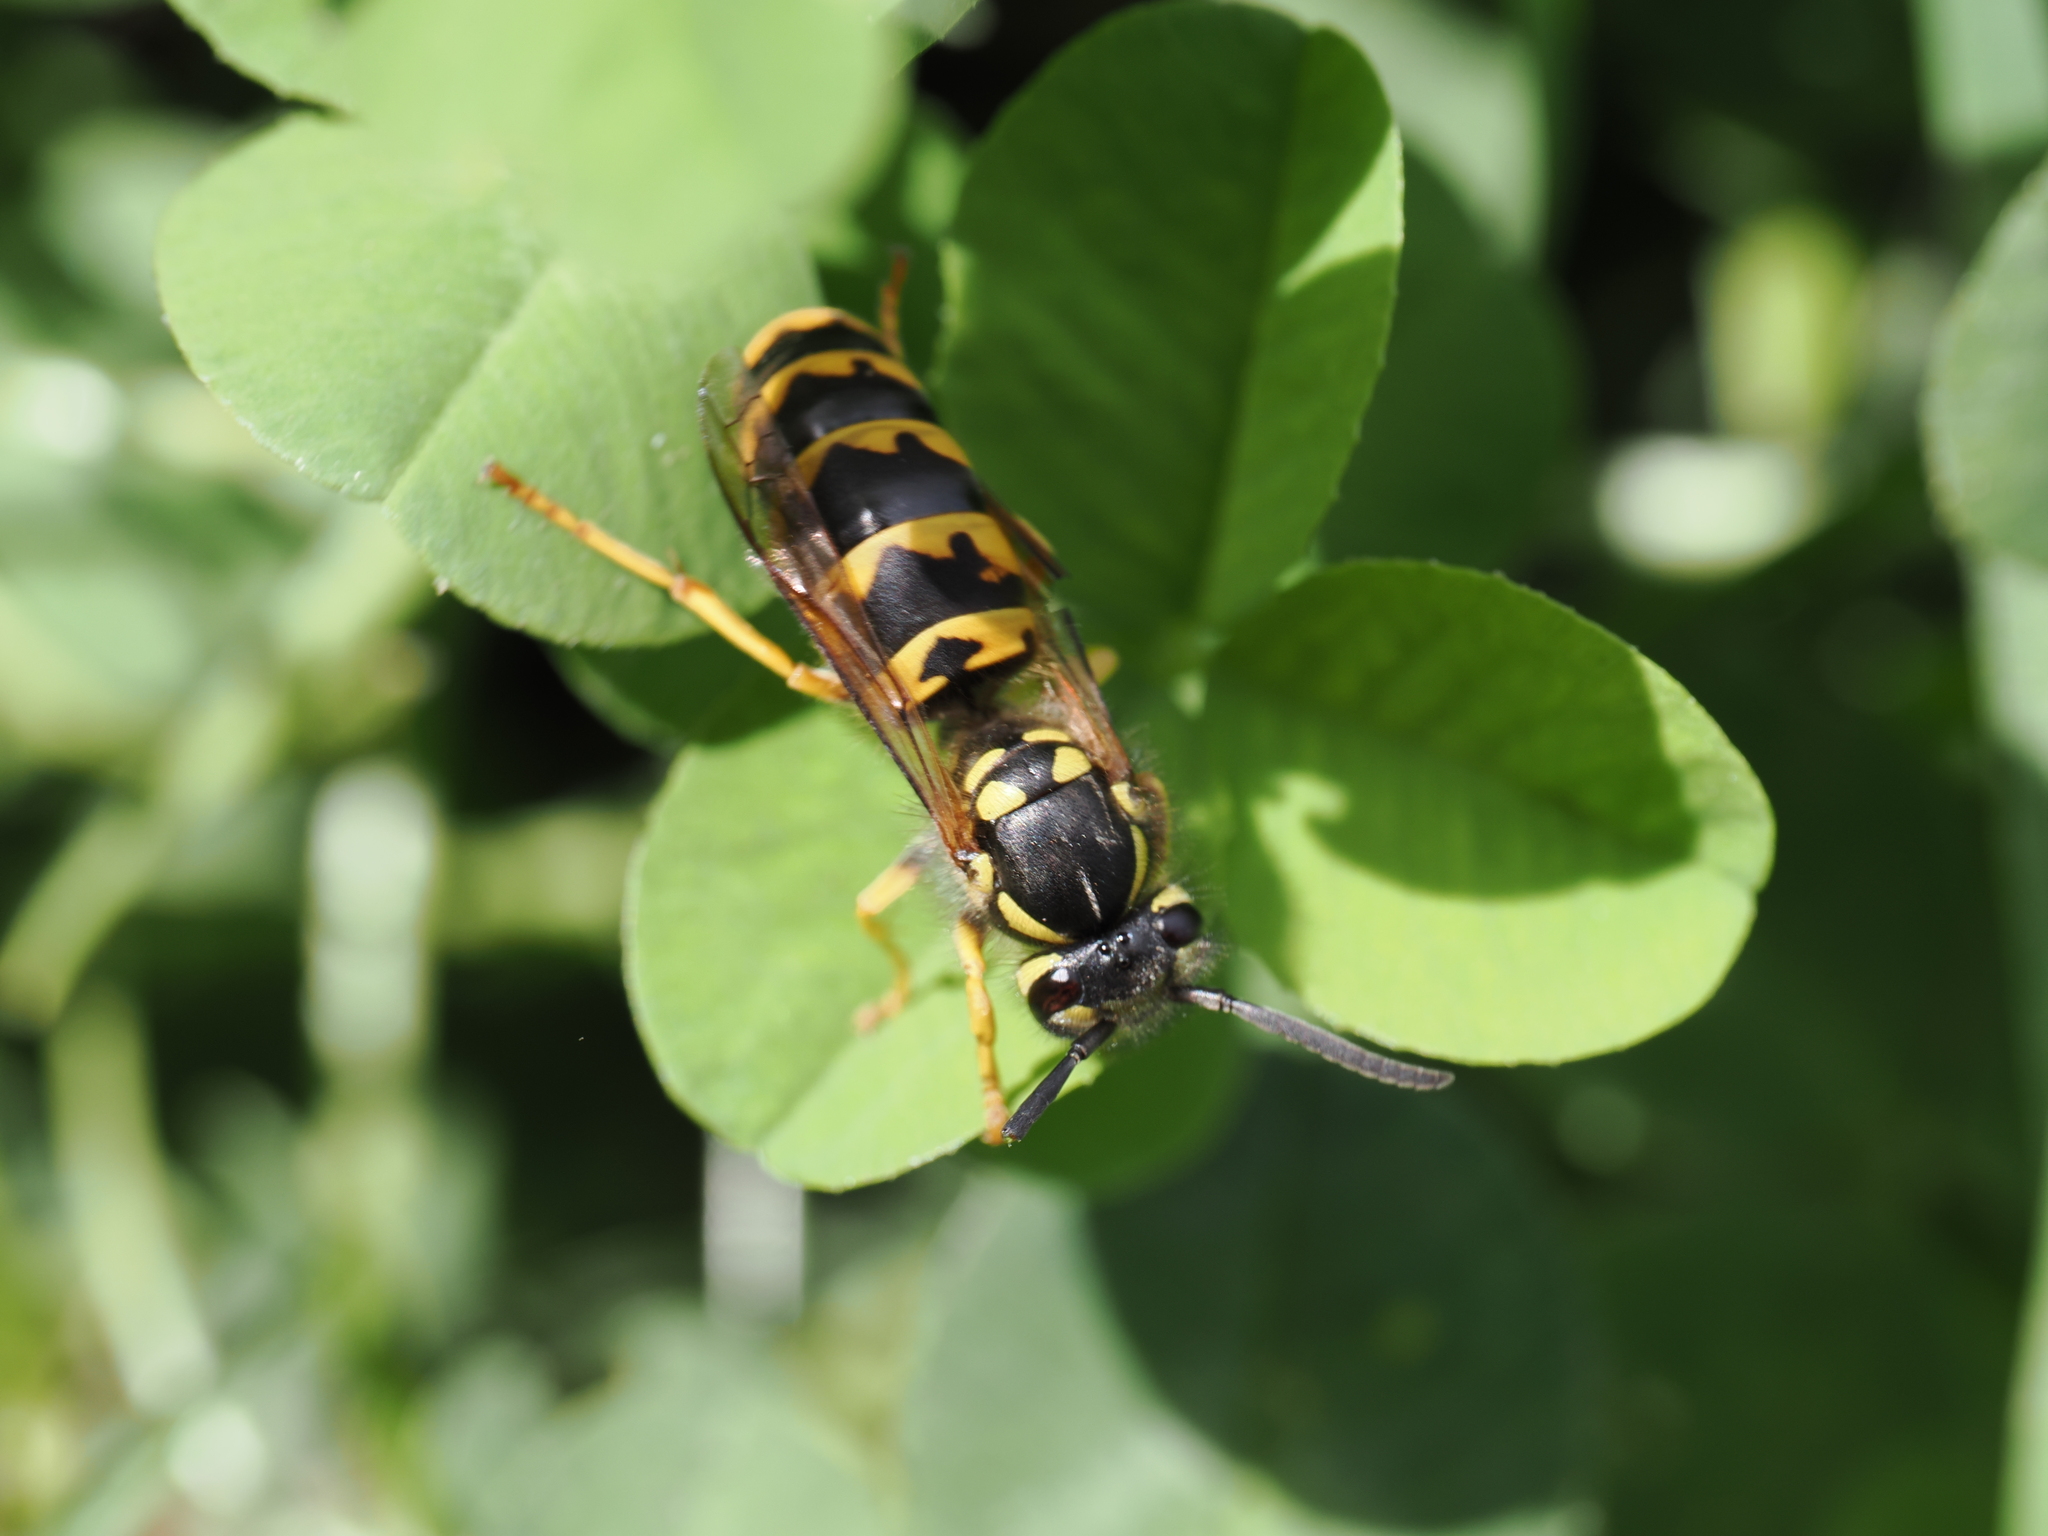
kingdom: Animalia
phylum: Arthropoda
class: Insecta
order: Hymenoptera
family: Vespidae
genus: Vespula
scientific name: Vespula germanica
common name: German wasp
